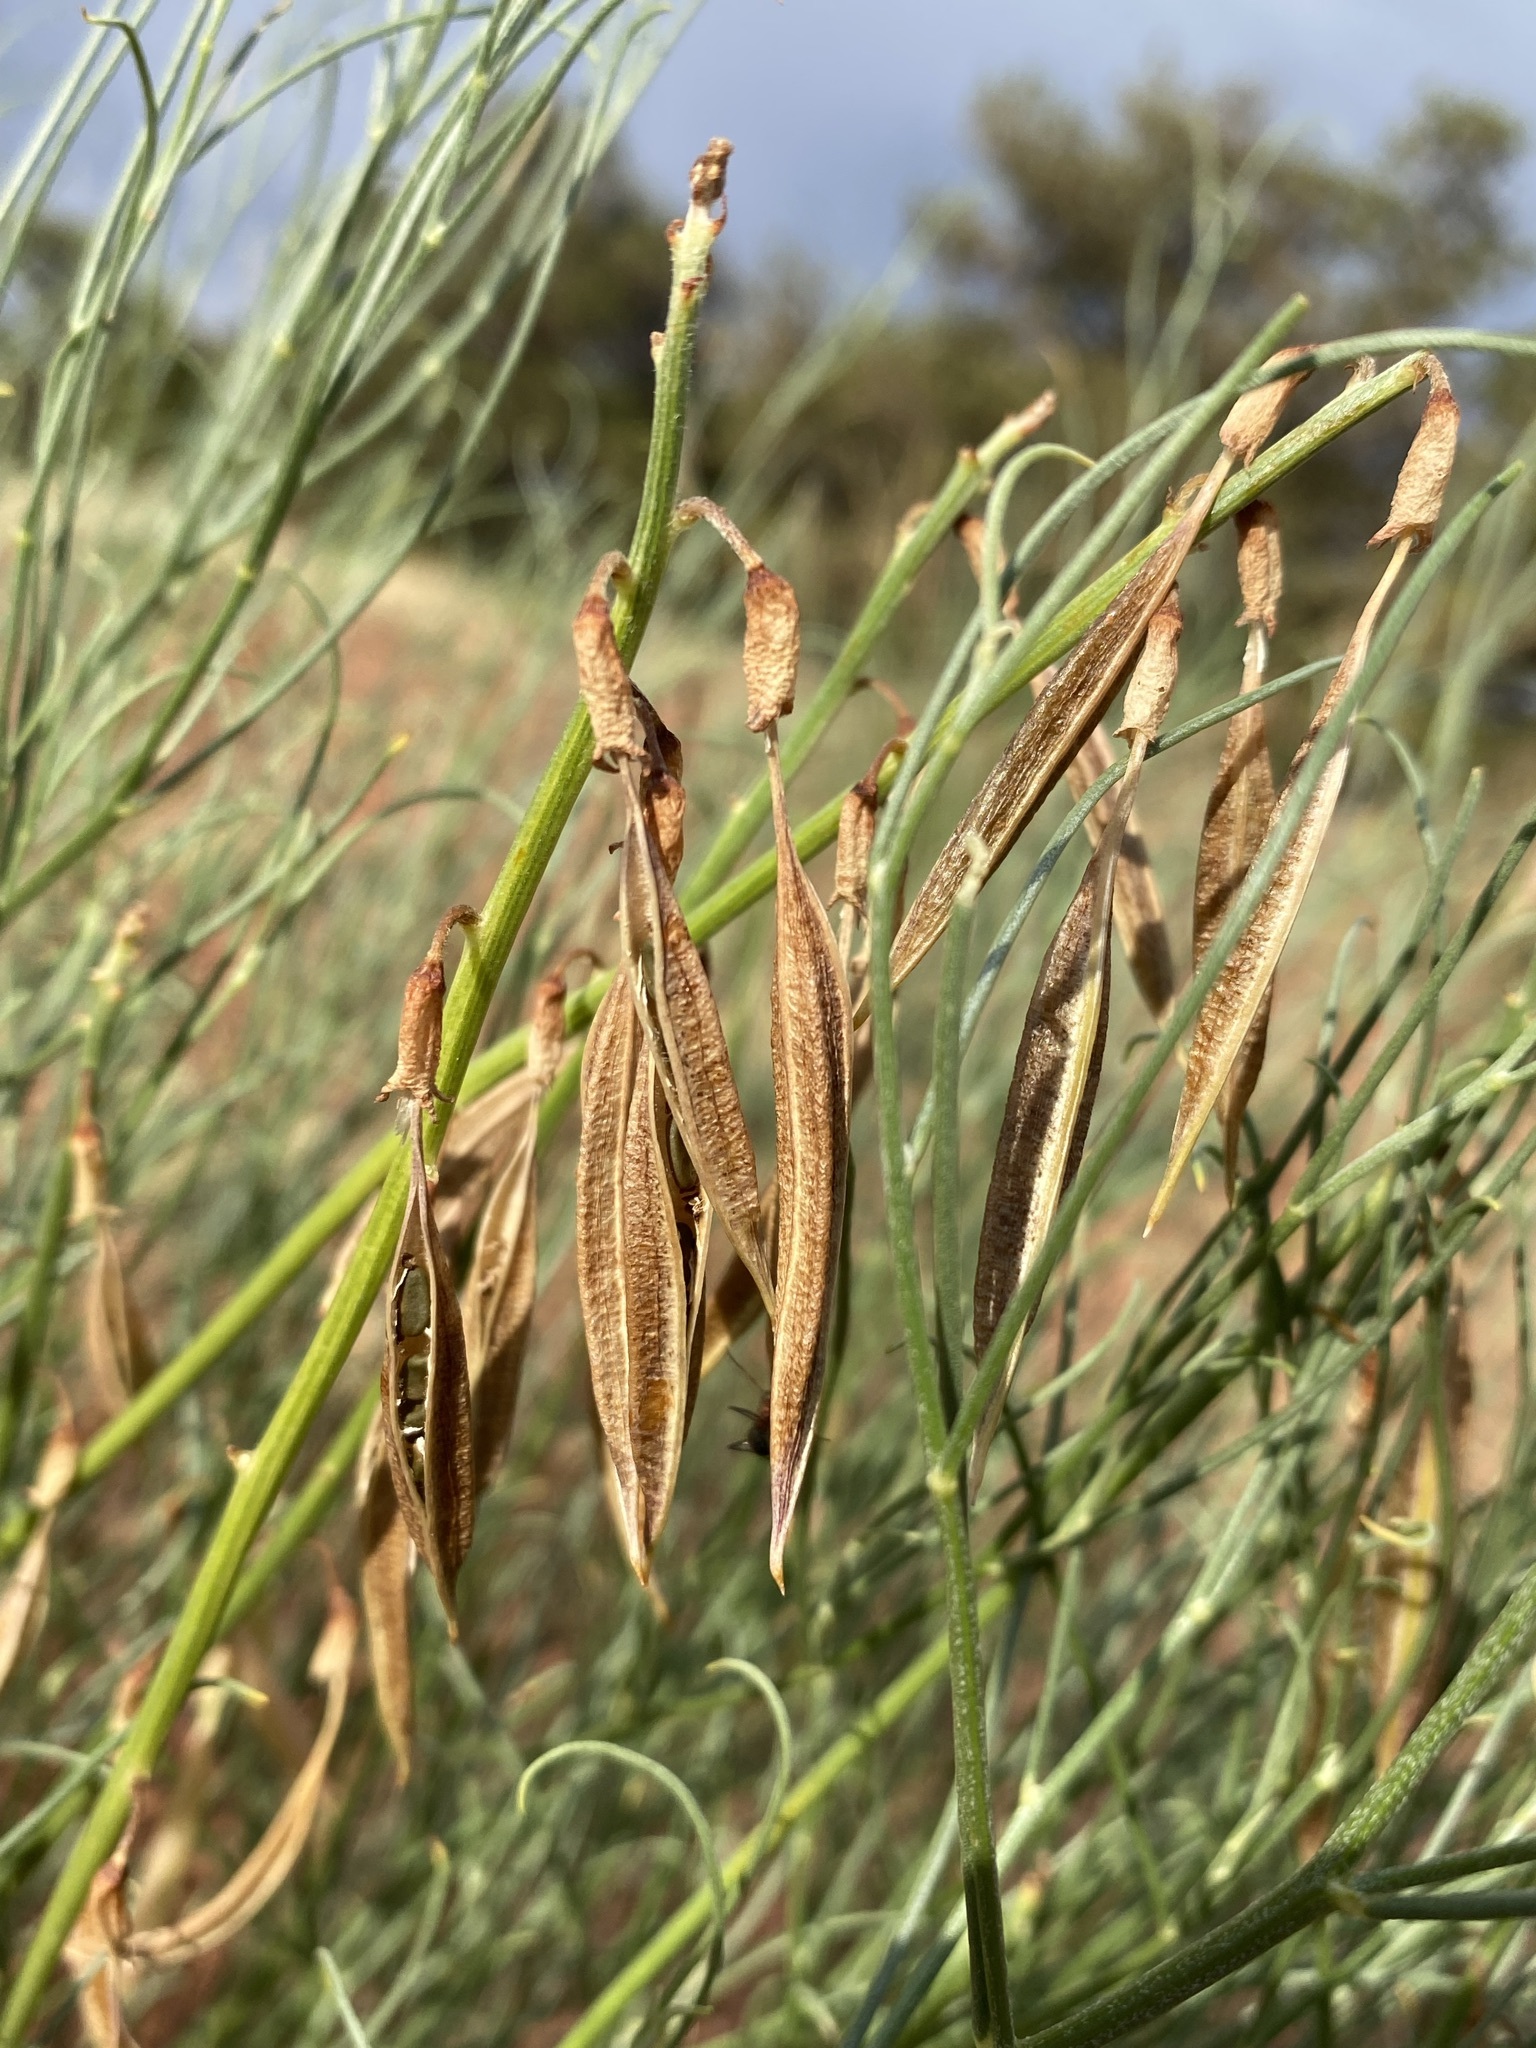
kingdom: Plantae
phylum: Tracheophyta
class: Magnoliopsida
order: Fabales
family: Fabaceae
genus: Astragalus
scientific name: Astragalus lonchocarpus
